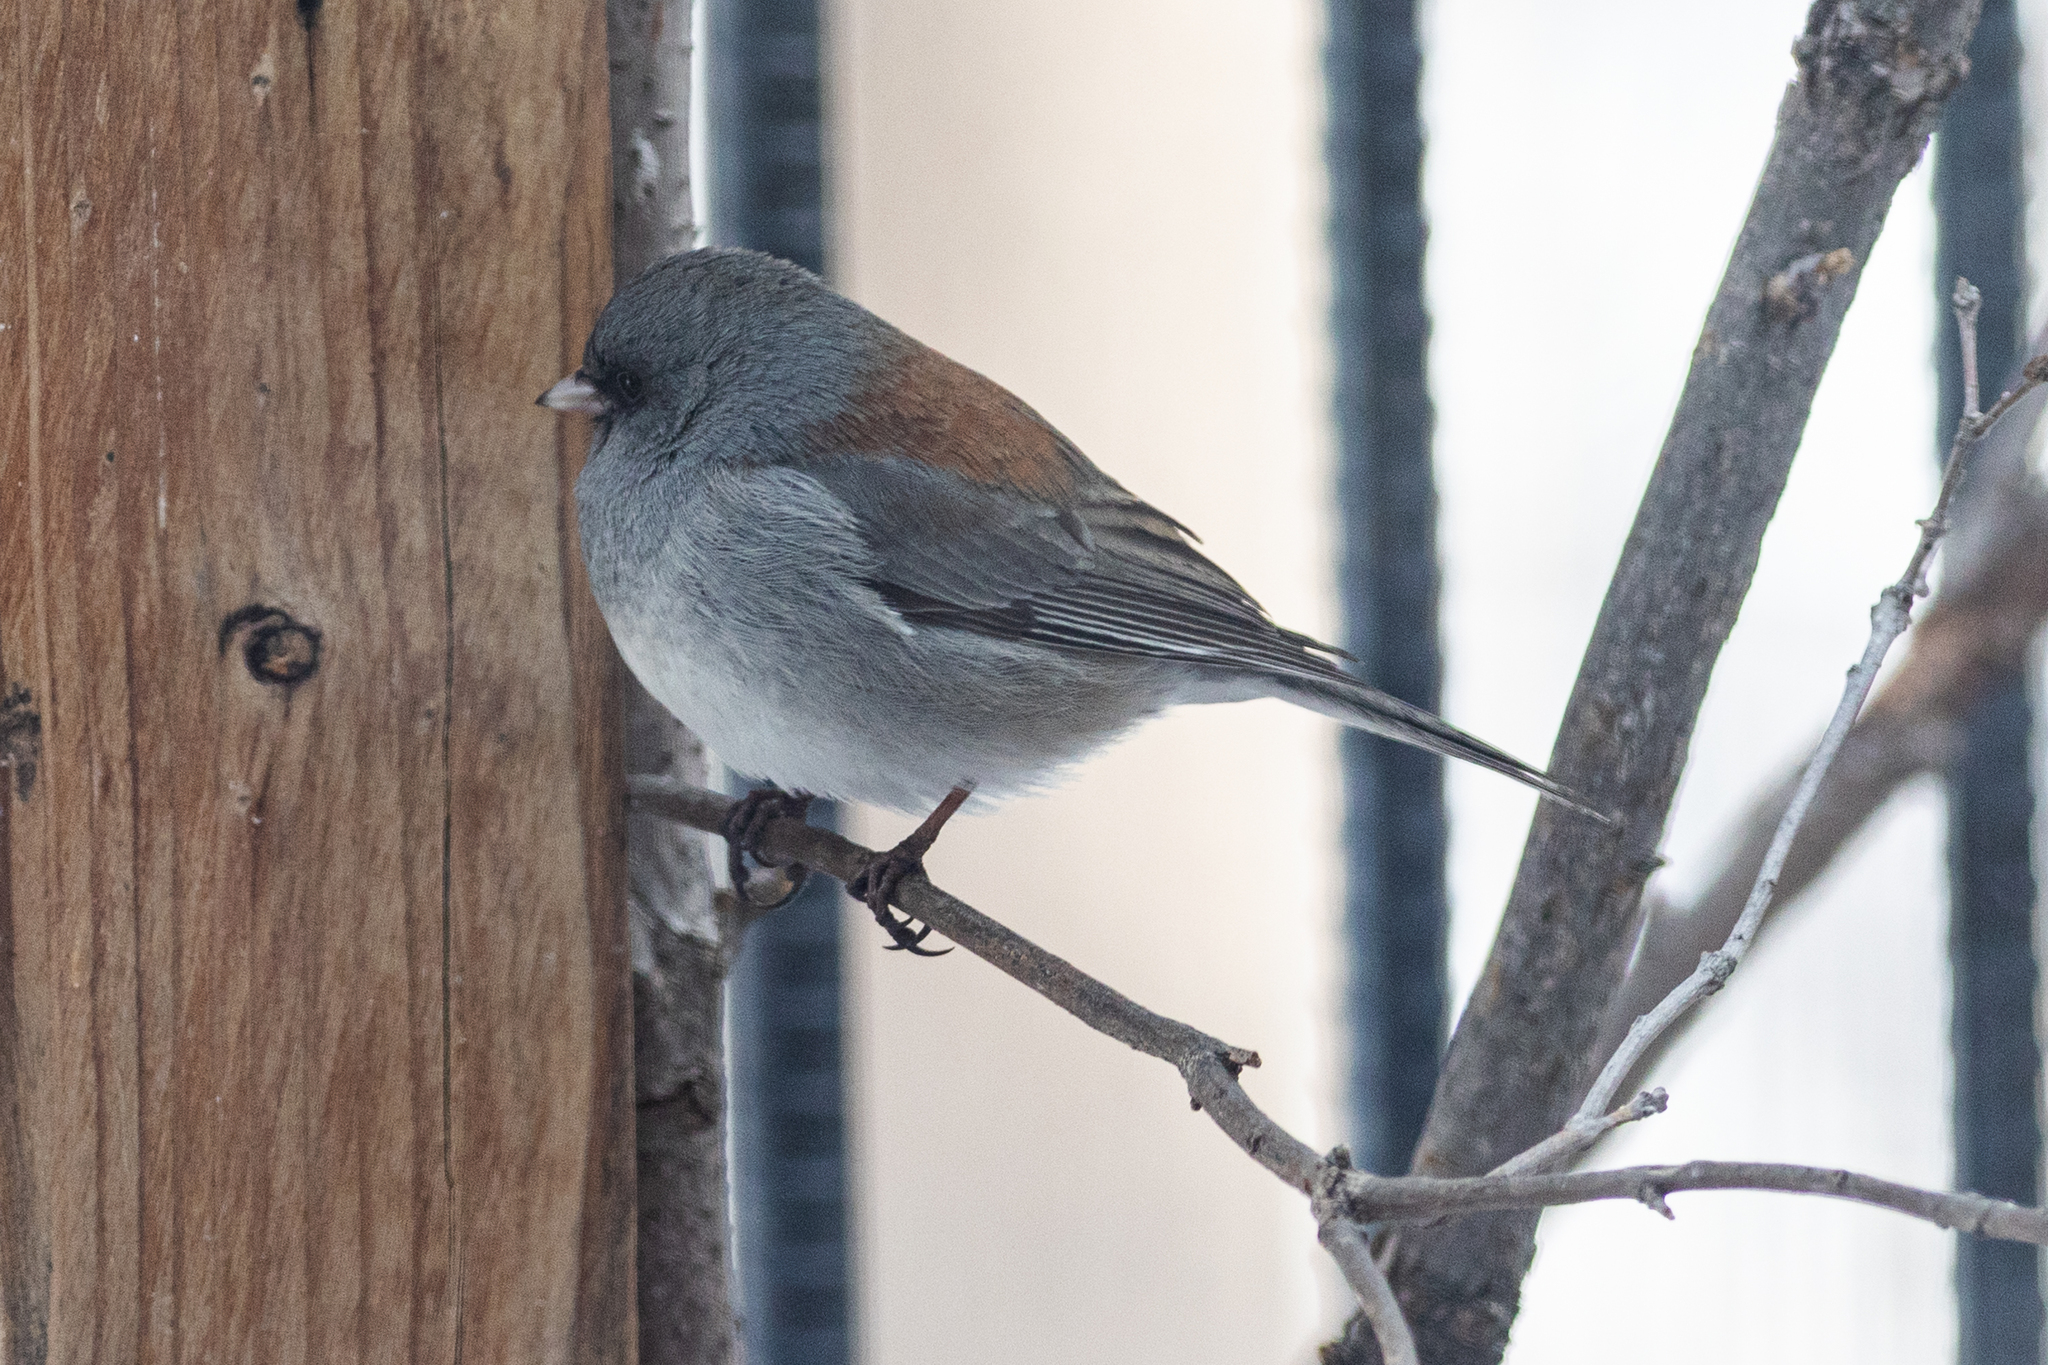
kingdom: Animalia
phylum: Chordata
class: Aves
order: Passeriformes
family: Passerellidae
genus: Junco
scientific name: Junco hyemalis
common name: Dark-eyed junco
